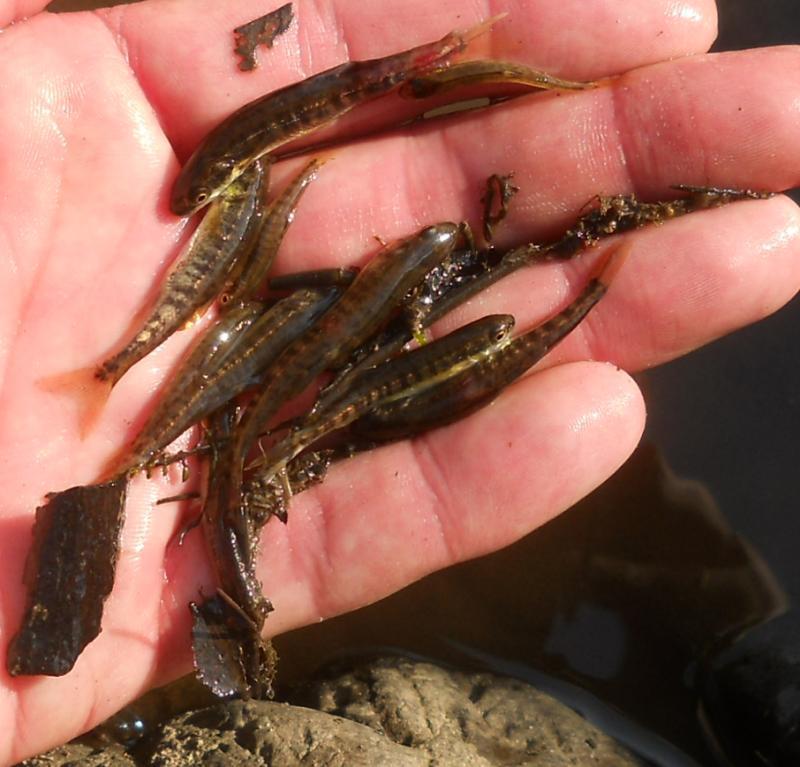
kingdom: Animalia
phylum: Chordata
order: Cypriniformes
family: Cyprinidae
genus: Phoxinus
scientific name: Phoxinus phoxinus
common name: Minnow
